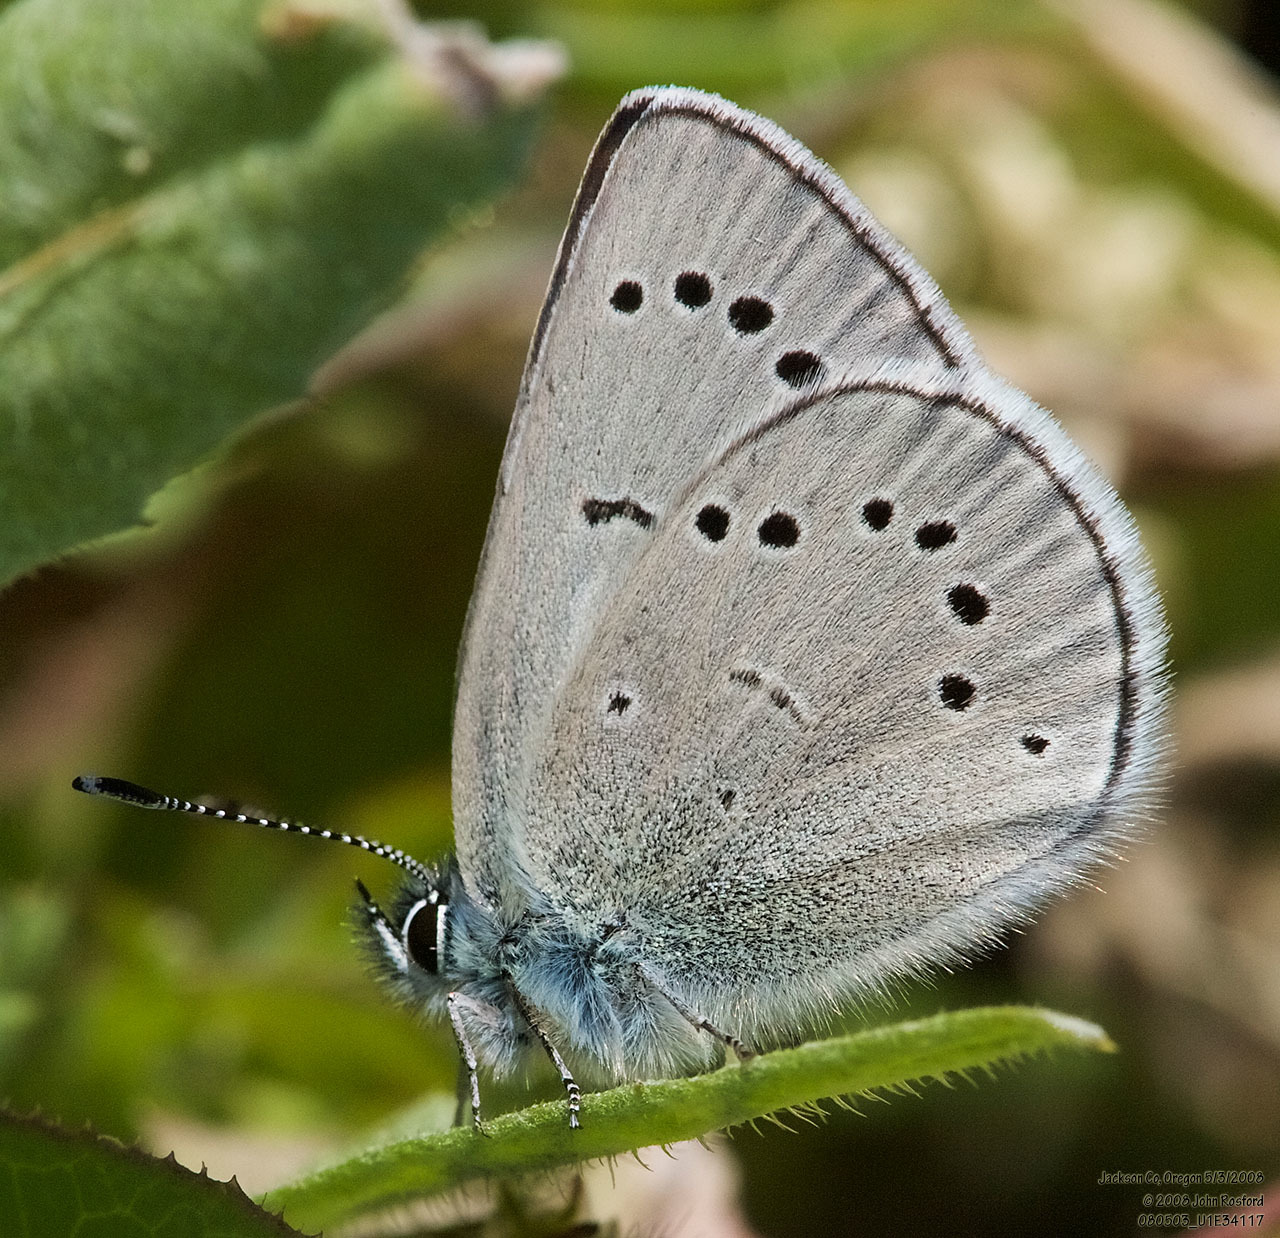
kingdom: Animalia
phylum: Arthropoda
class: Insecta
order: Lepidoptera
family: Lycaenidae
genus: Glaucopsyche
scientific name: Glaucopsyche lygdamus
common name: Silvery blue
